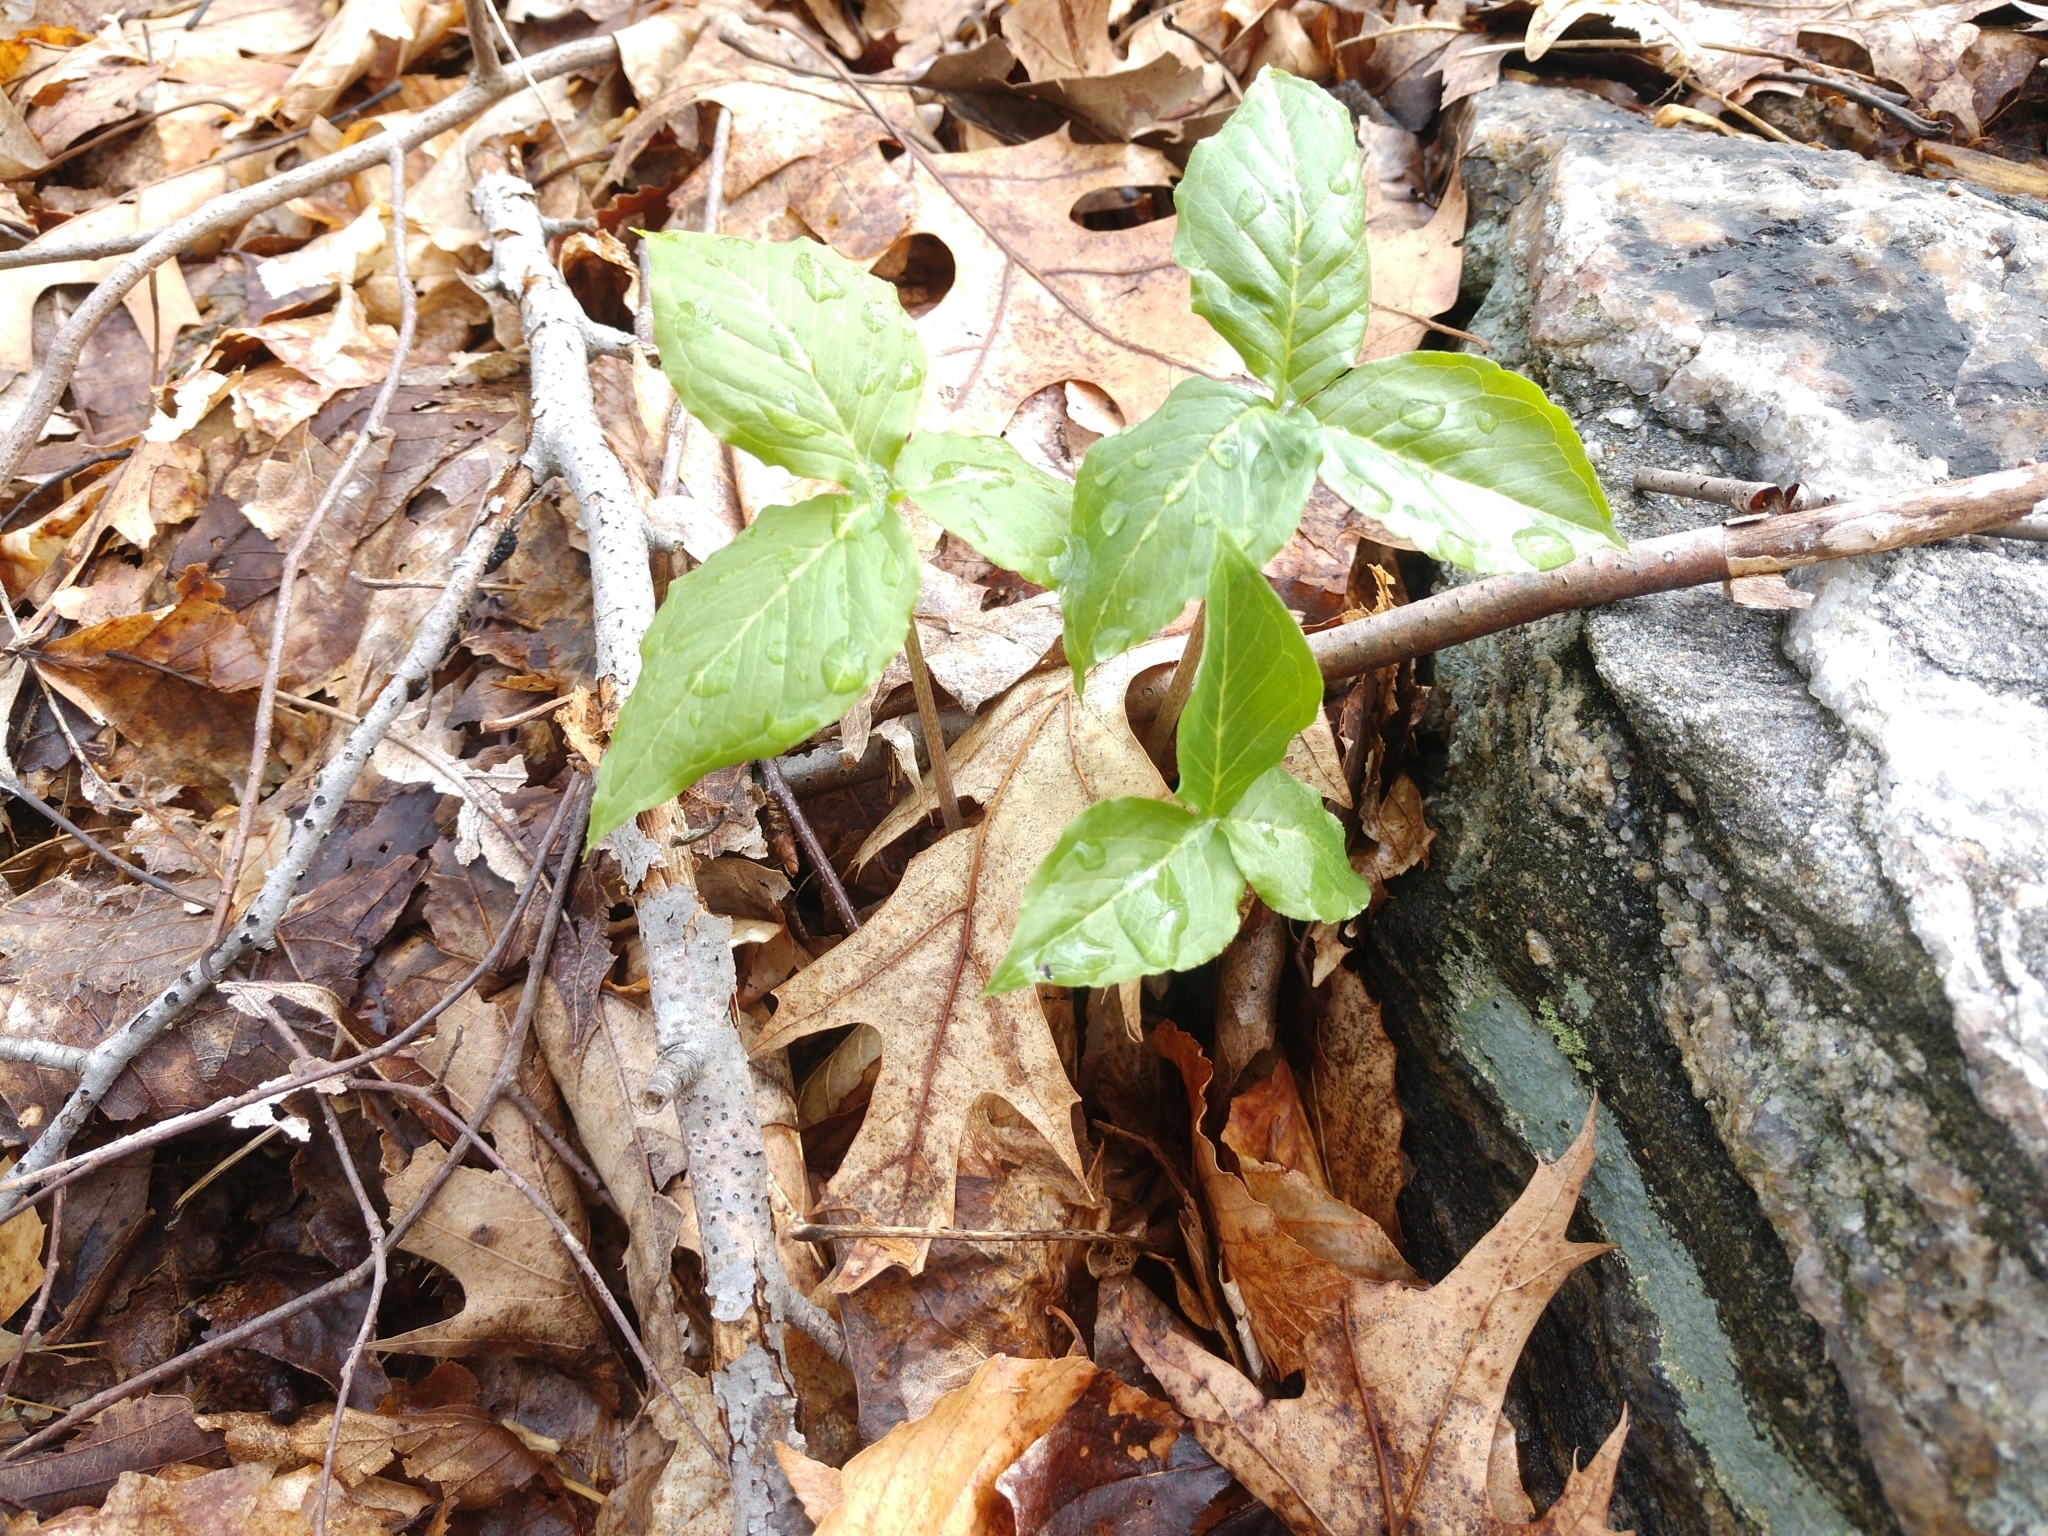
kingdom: Plantae
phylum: Tracheophyta
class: Liliopsida
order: Alismatales
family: Araceae
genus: Arisaema
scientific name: Arisaema triphyllum
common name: Jack-in-the-pulpit
